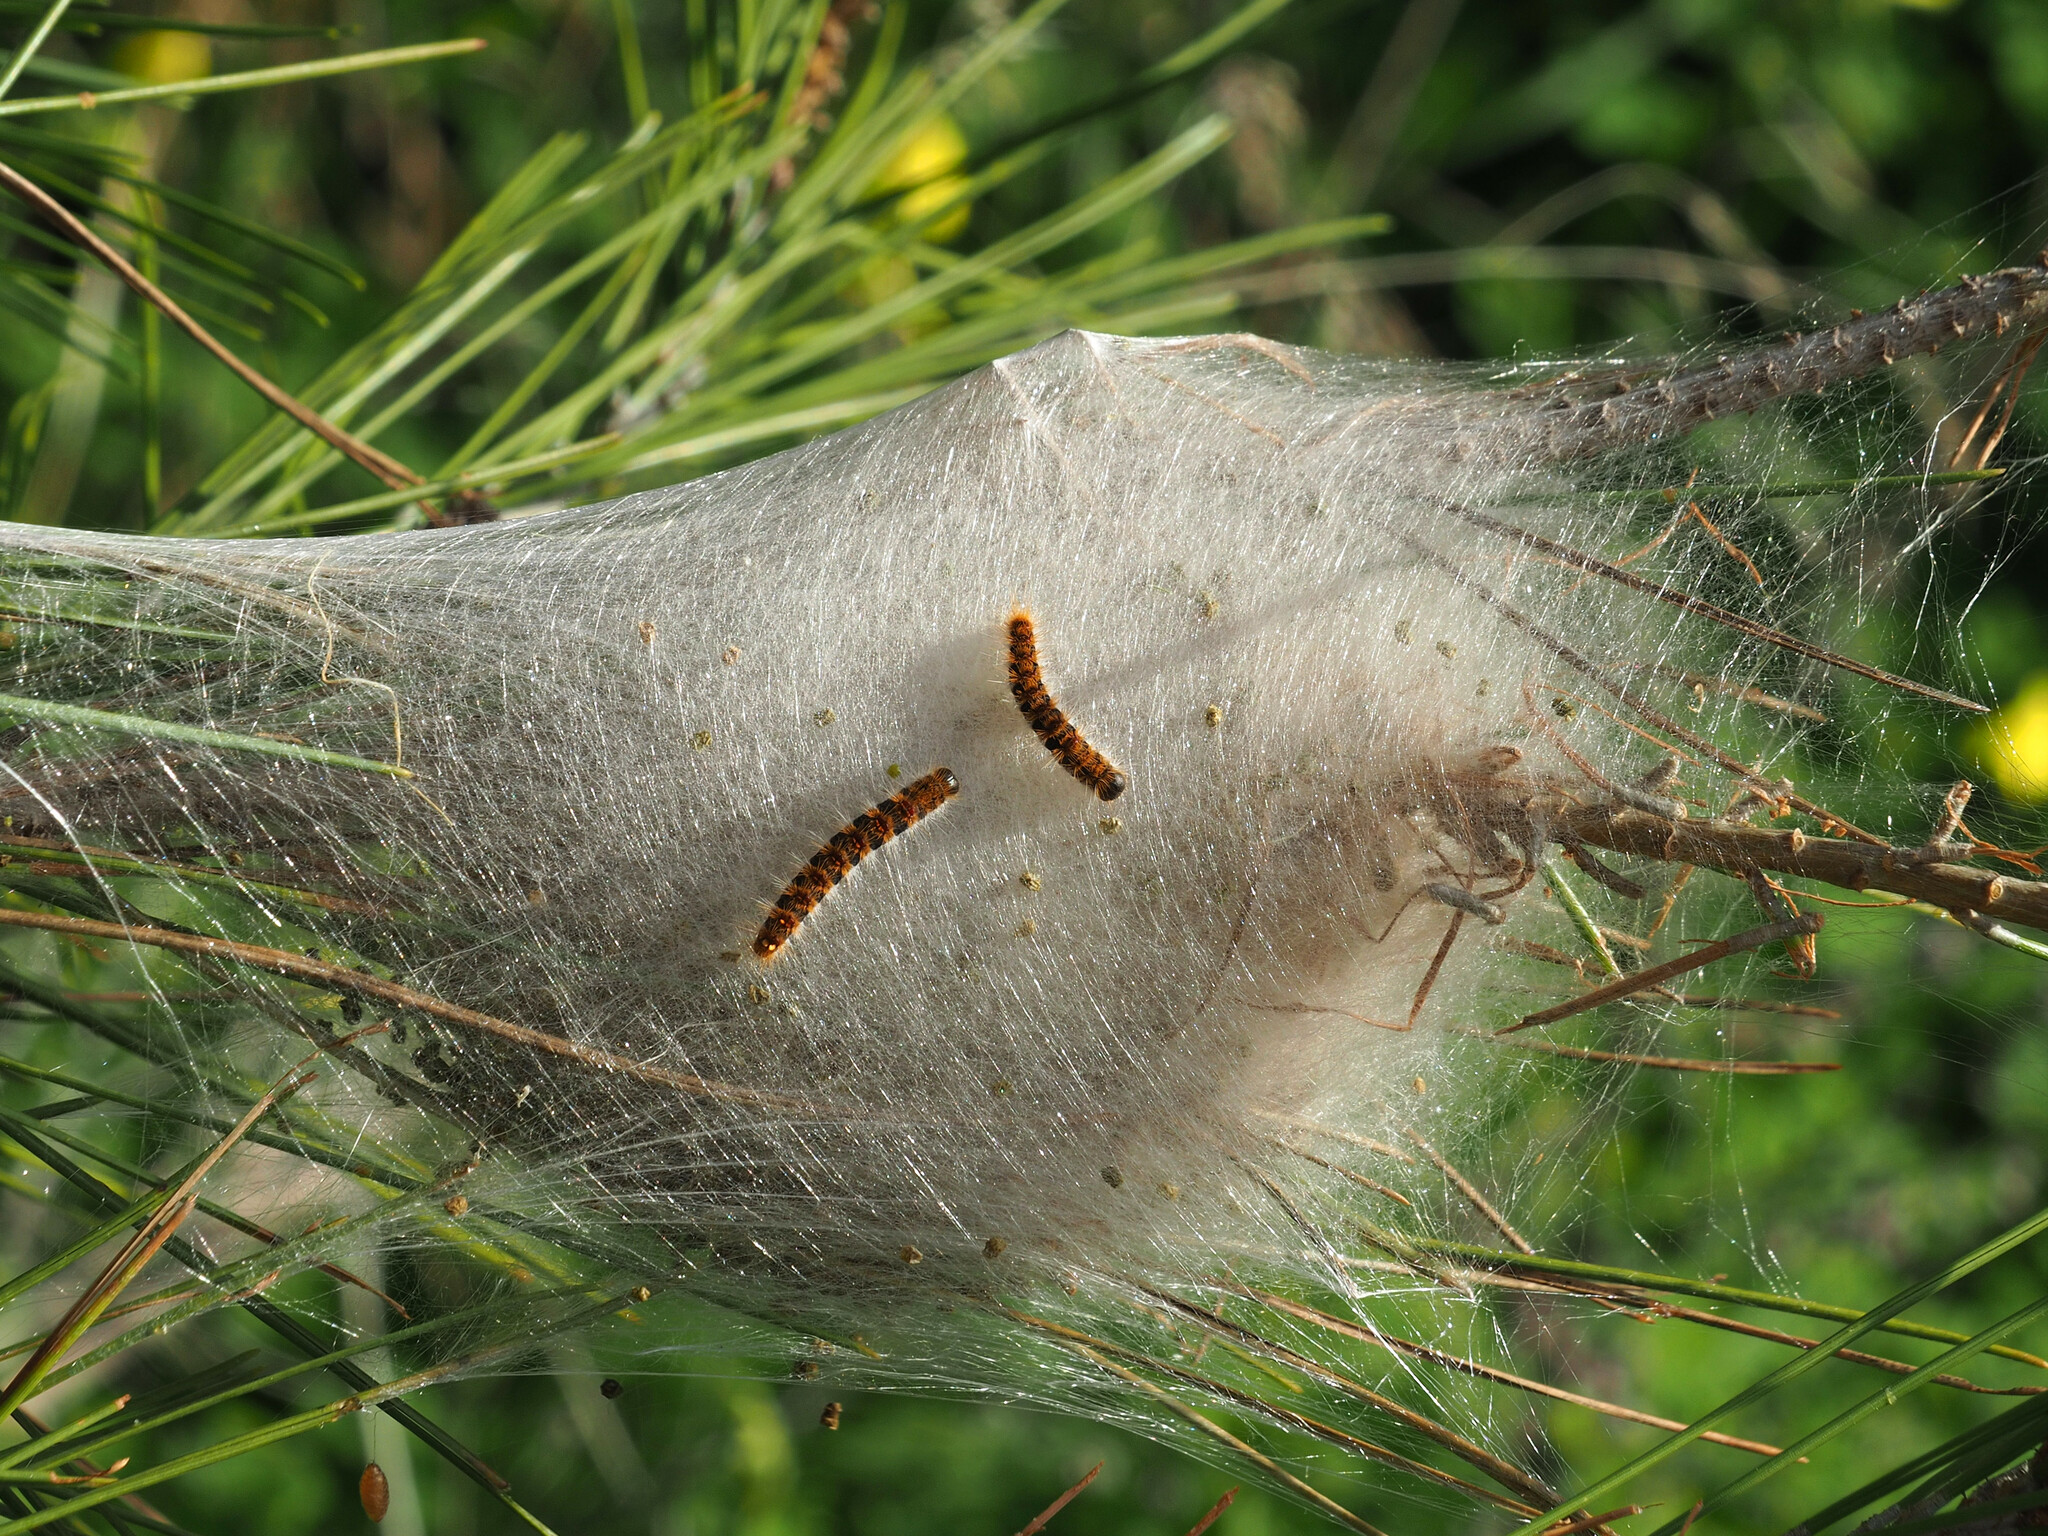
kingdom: Animalia
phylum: Arthropoda
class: Insecta
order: Lepidoptera
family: Notodontidae
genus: Thaumetopoea
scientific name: Thaumetopoea pityocampa
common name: Pine processionary
